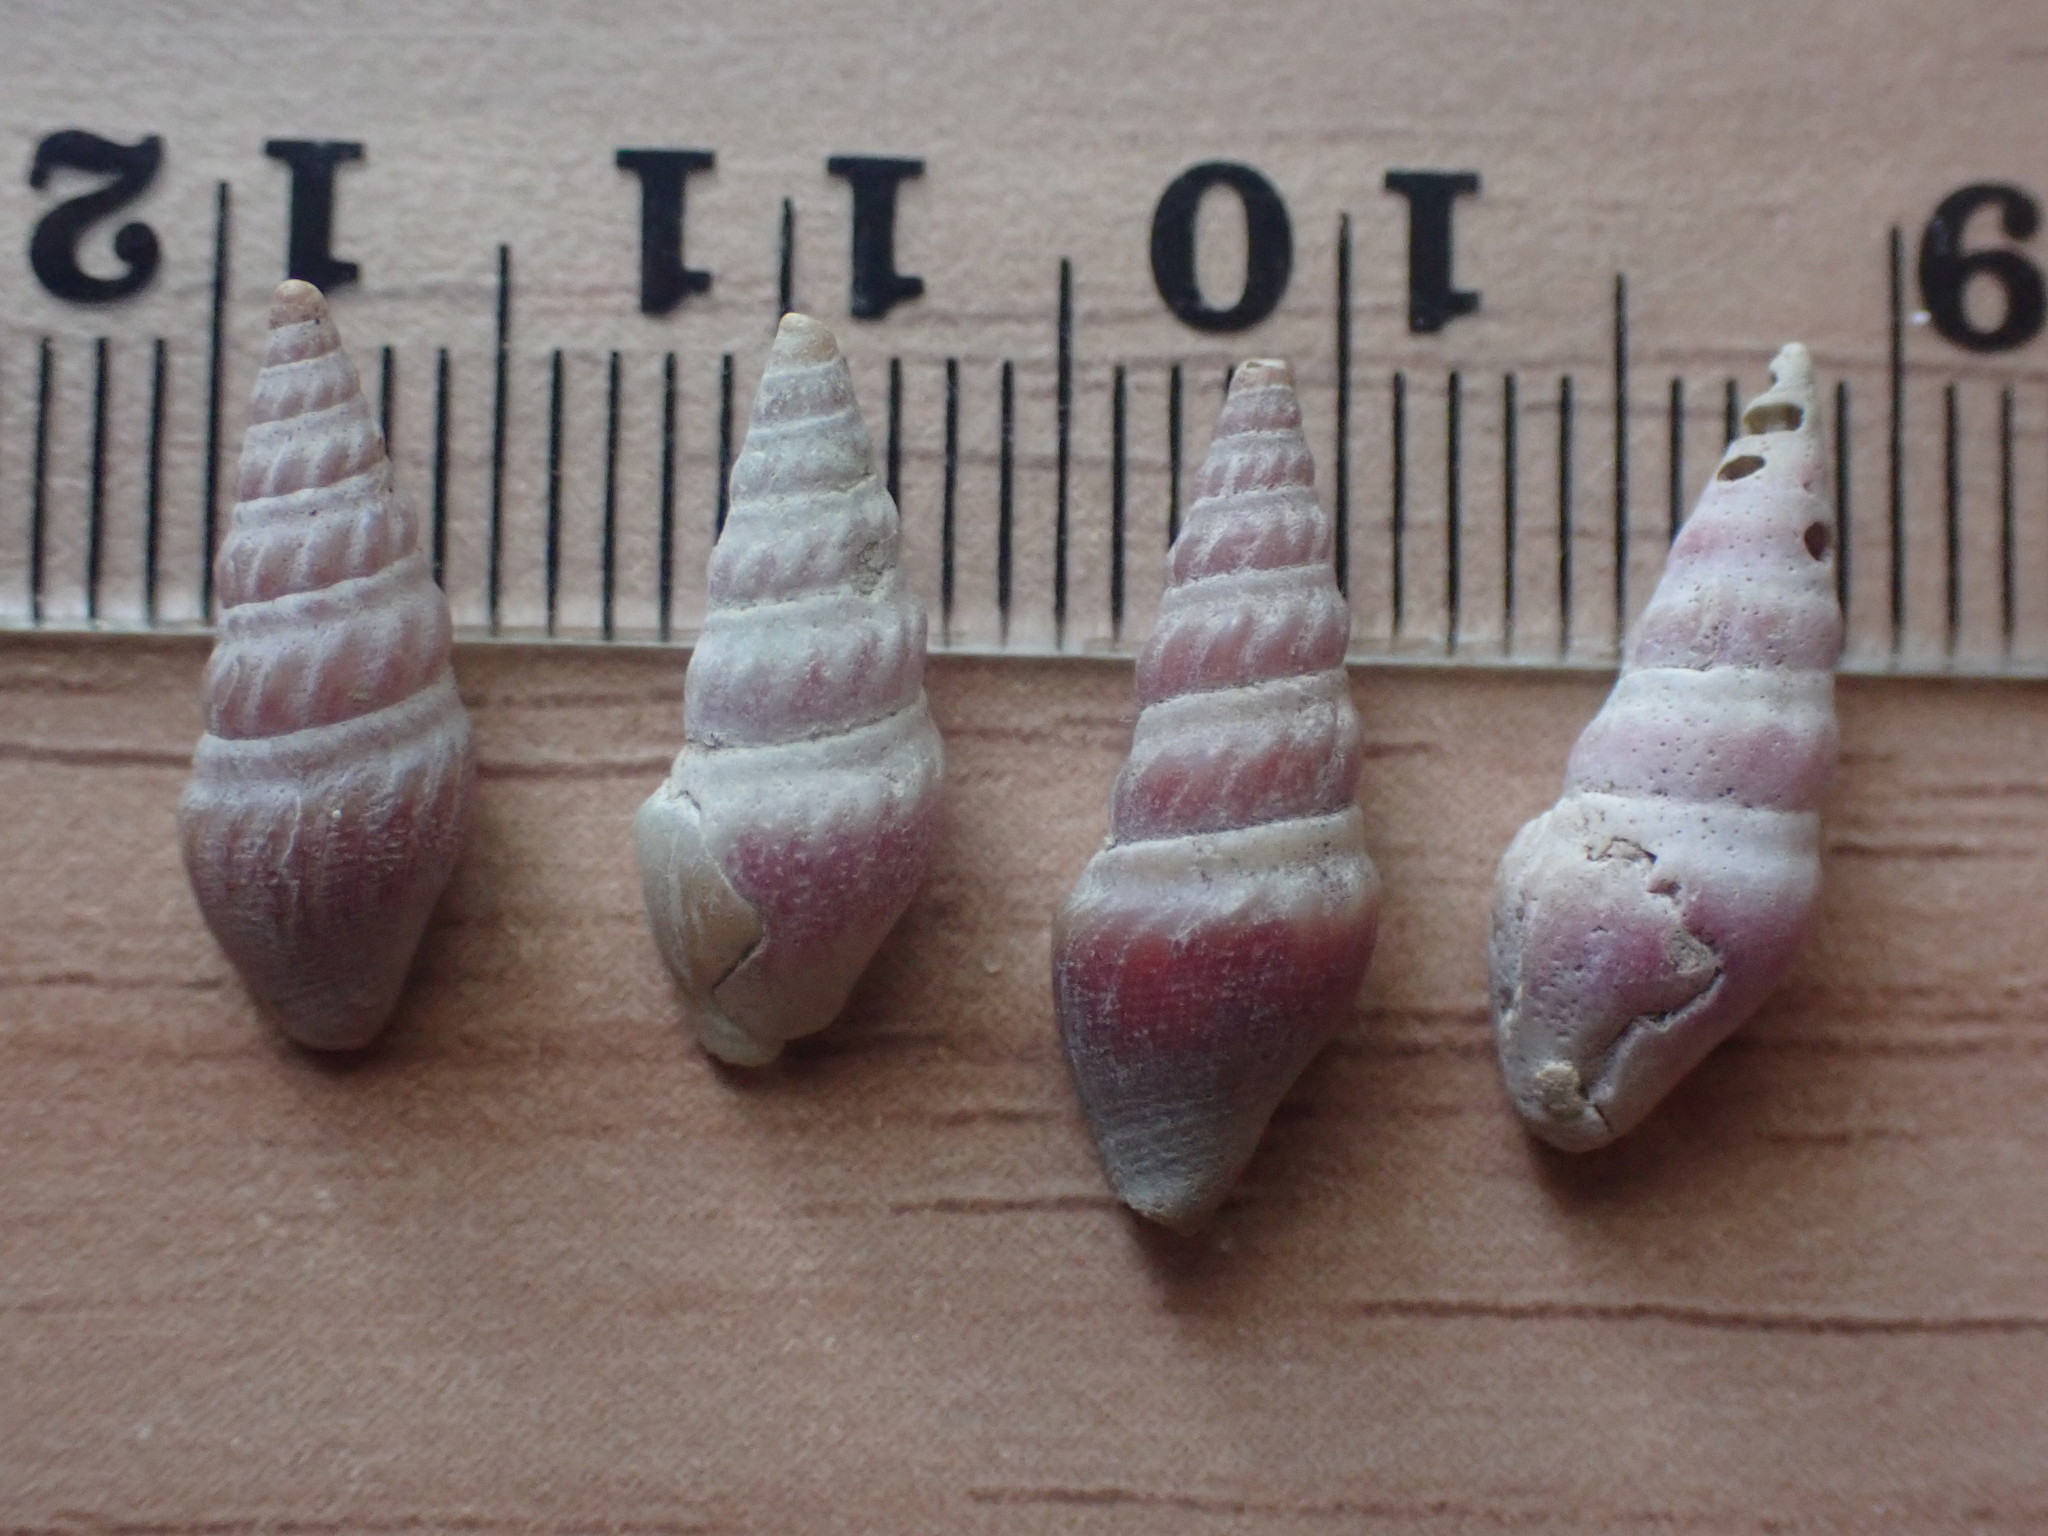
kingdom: Animalia
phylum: Mollusca
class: Gastropoda
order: Neogastropoda
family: Drilliidae
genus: Splendrillia
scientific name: Splendrillia larochei
